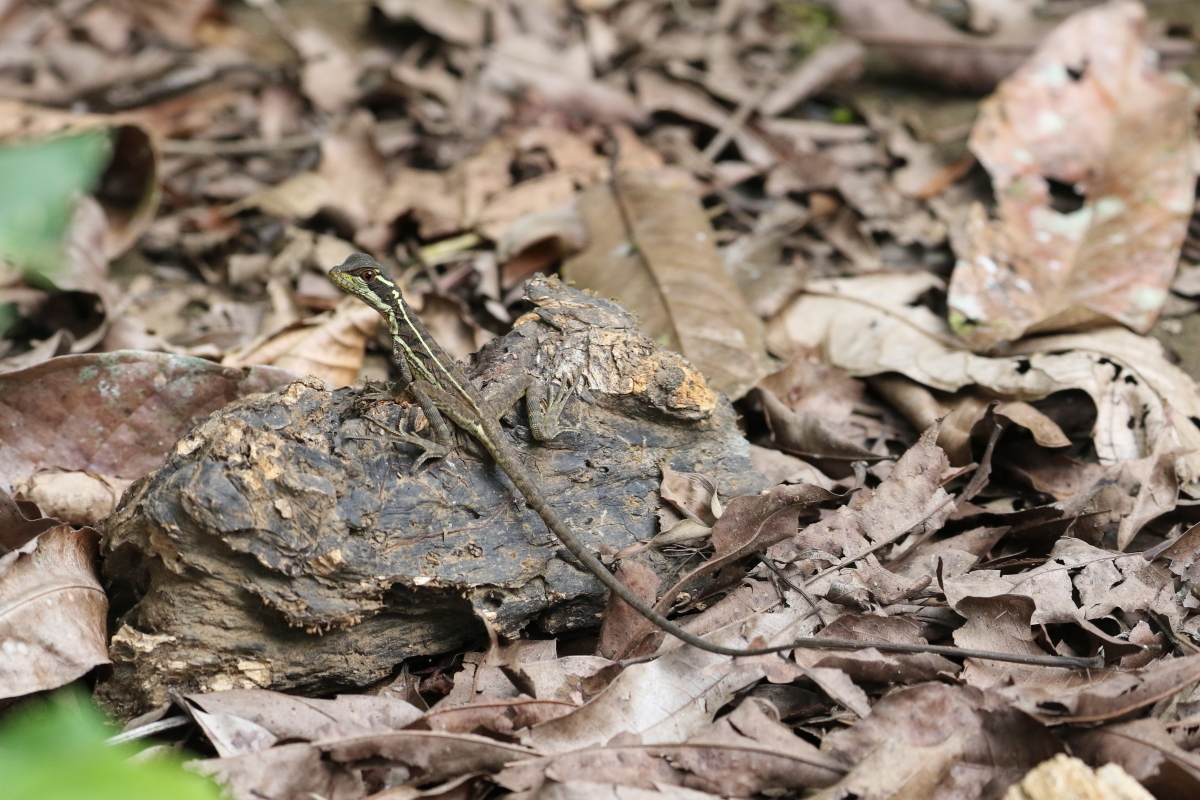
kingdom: Animalia
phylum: Chordata
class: Squamata
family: Corytophanidae
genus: Basiliscus
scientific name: Basiliscus basiliscus
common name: Common basilisk
